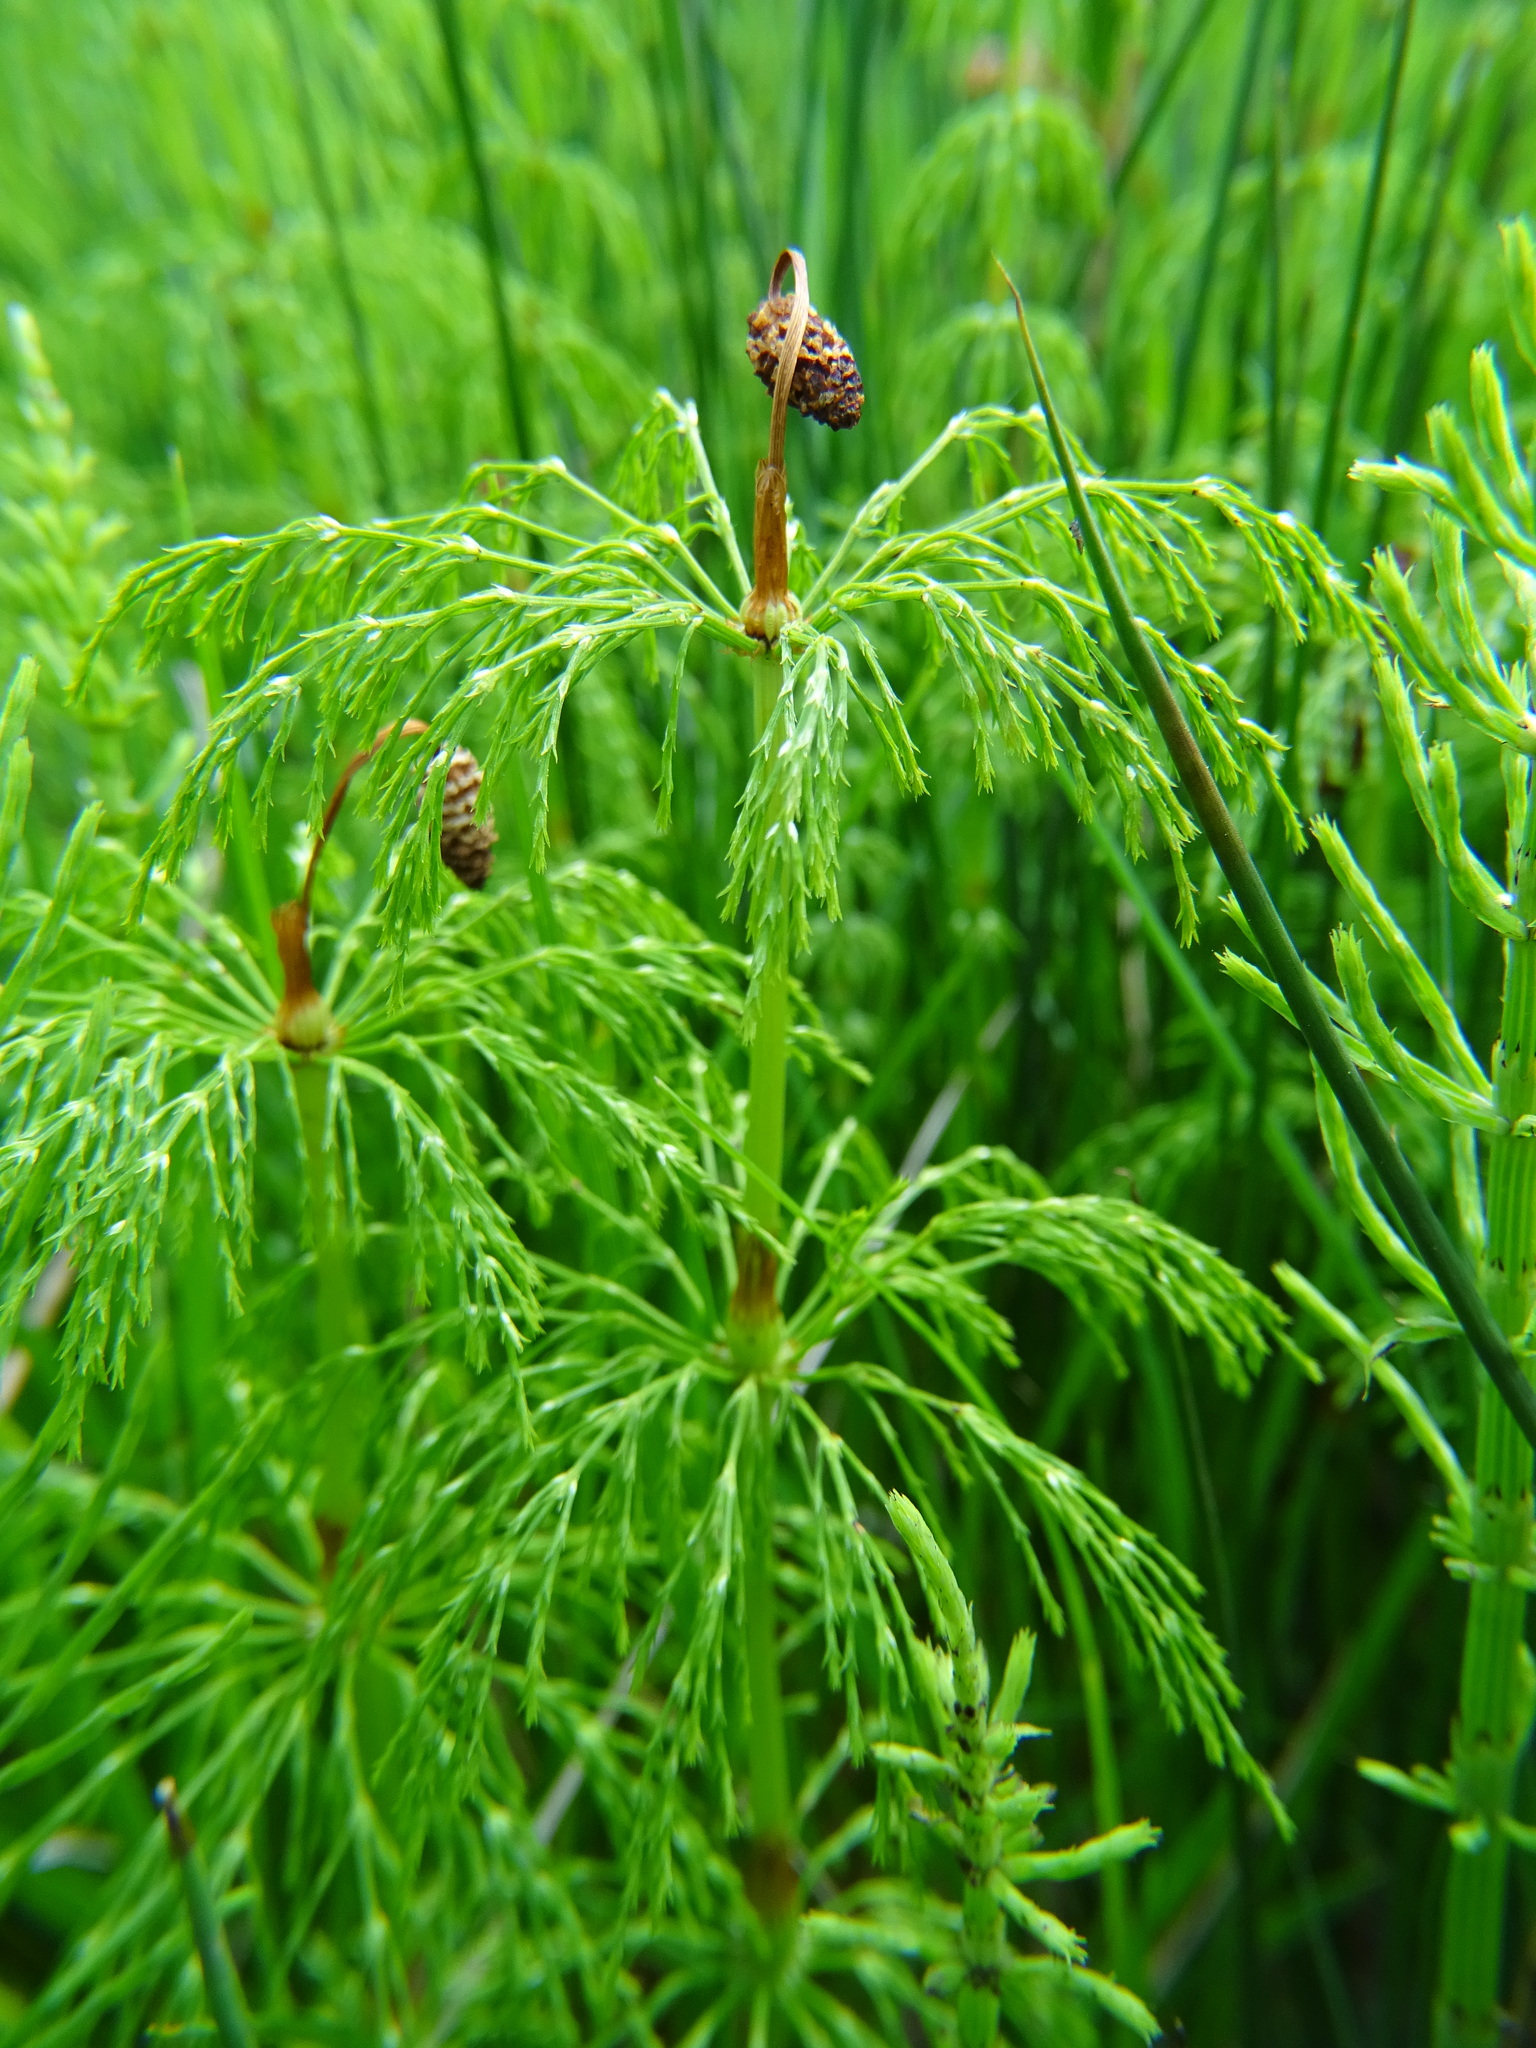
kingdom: Plantae
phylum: Tracheophyta
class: Polypodiopsida
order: Equisetales
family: Equisetaceae
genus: Equisetum
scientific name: Equisetum sylvaticum
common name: Wood horsetail
